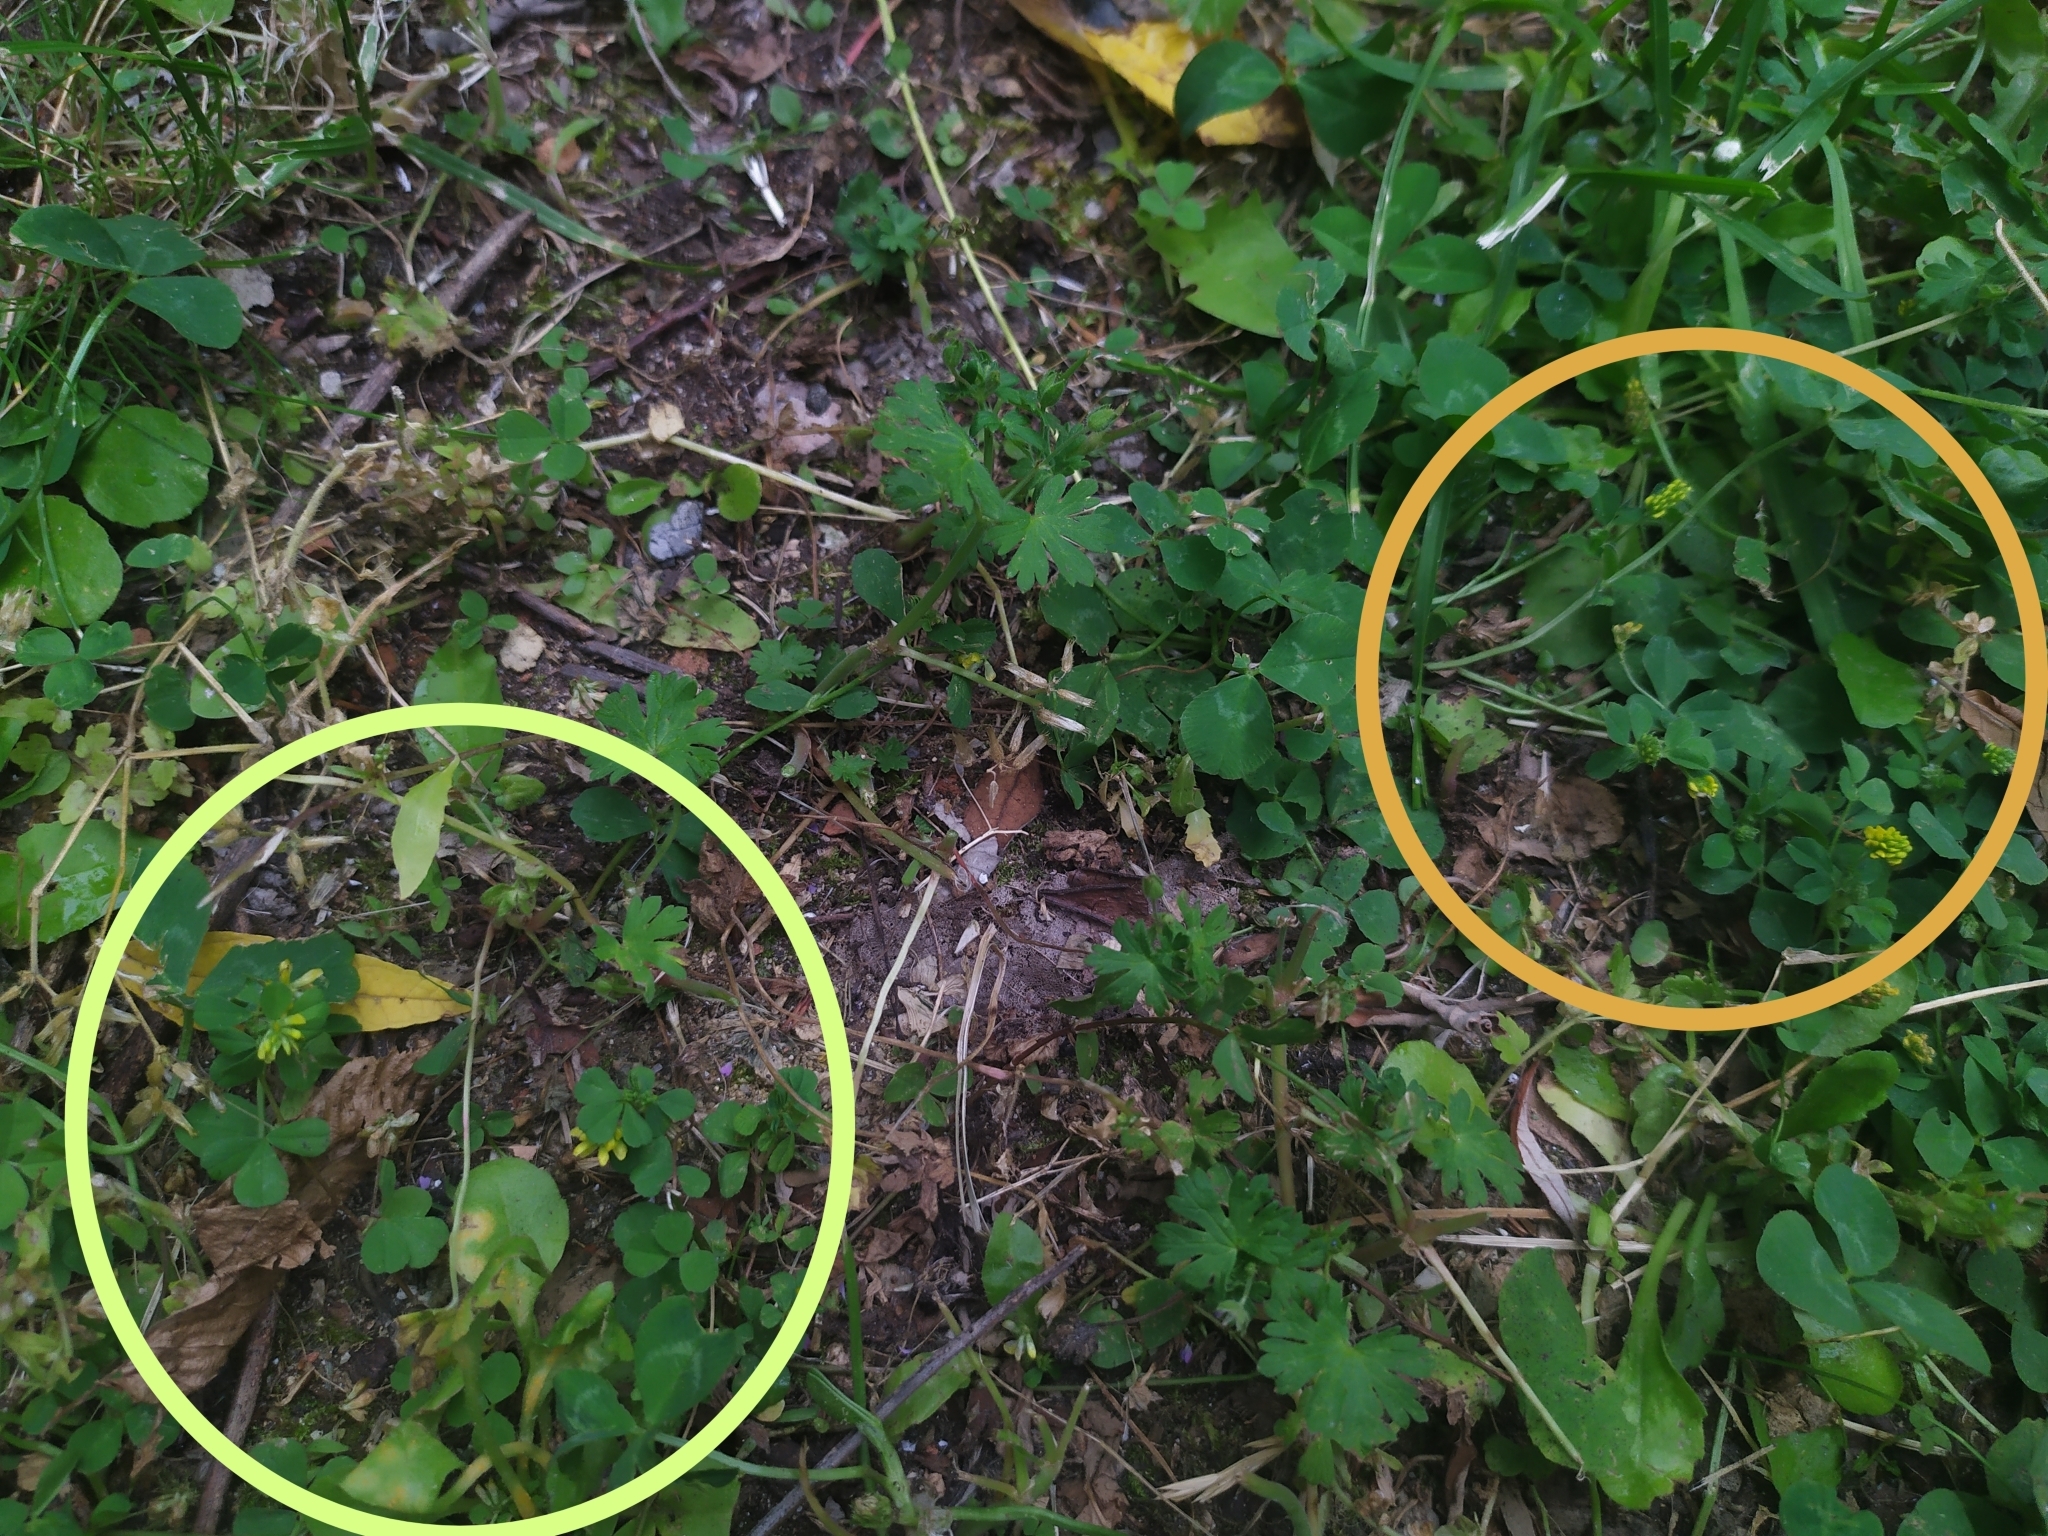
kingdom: Plantae
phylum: Tracheophyta
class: Magnoliopsida
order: Fabales
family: Fabaceae
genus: Trifolium
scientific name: Trifolium dubium
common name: Suckling clover
